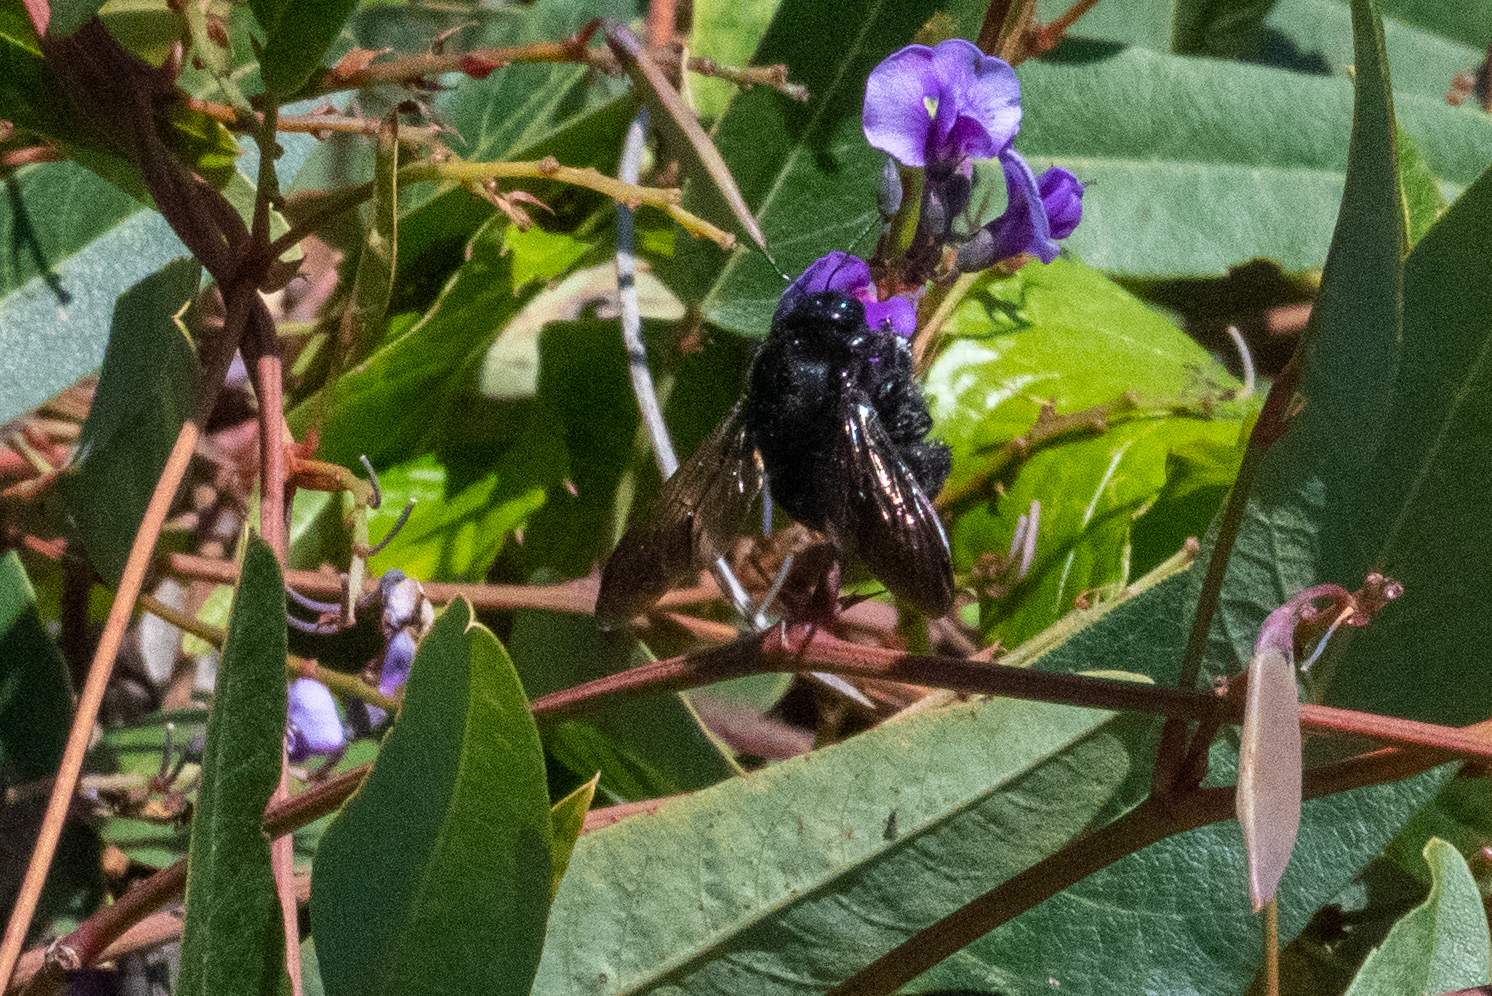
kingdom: Animalia
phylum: Arthropoda
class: Insecta
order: Hymenoptera
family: Apidae
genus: Xylocopa
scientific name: Xylocopa sonorina
